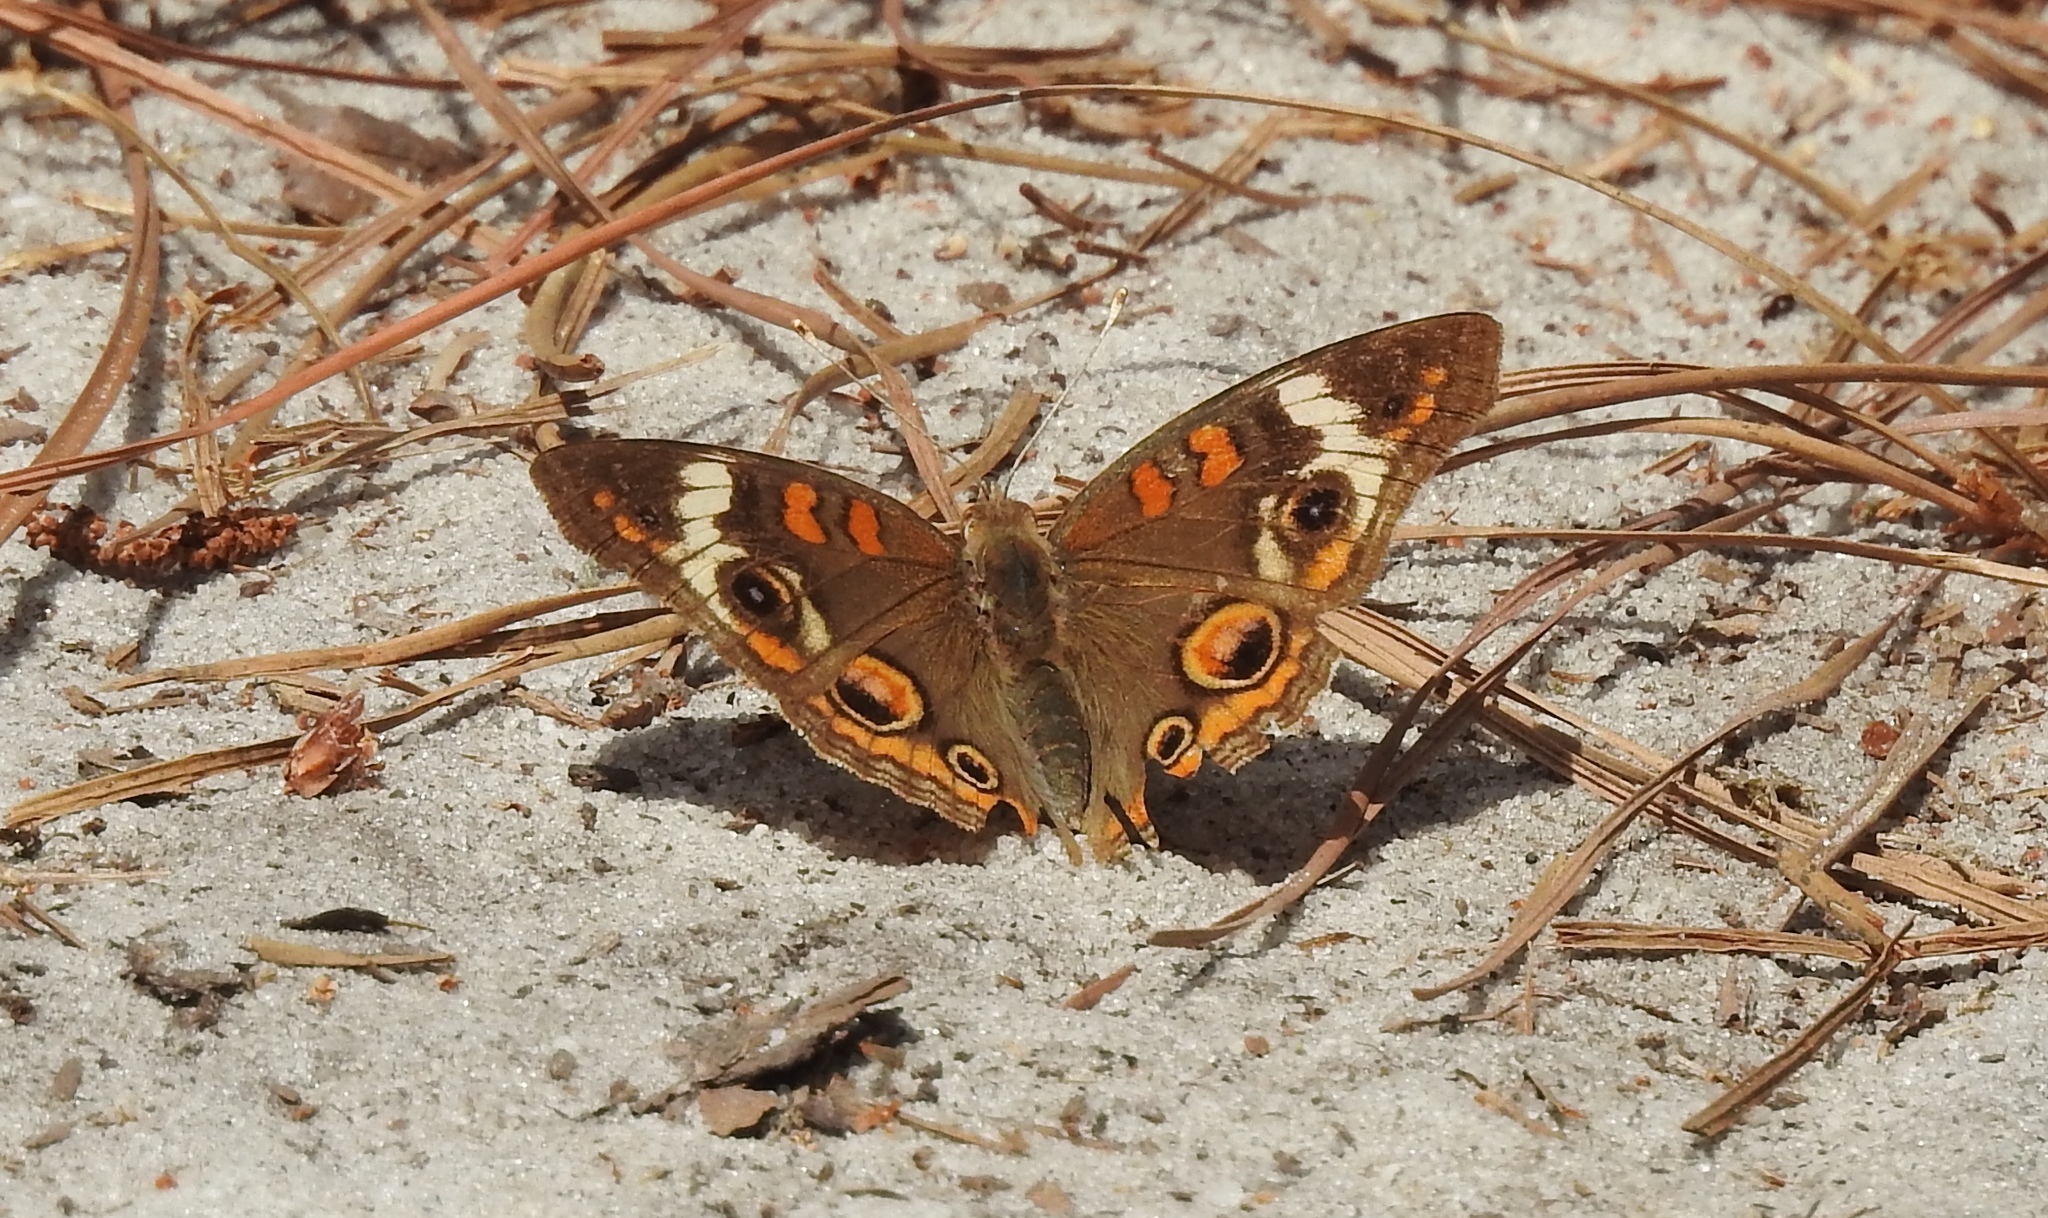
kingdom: Animalia
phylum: Arthropoda
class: Insecta
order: Lepidoptera
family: Nymphalidae
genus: Junonia
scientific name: Junonia coenia
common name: Common buckeye
